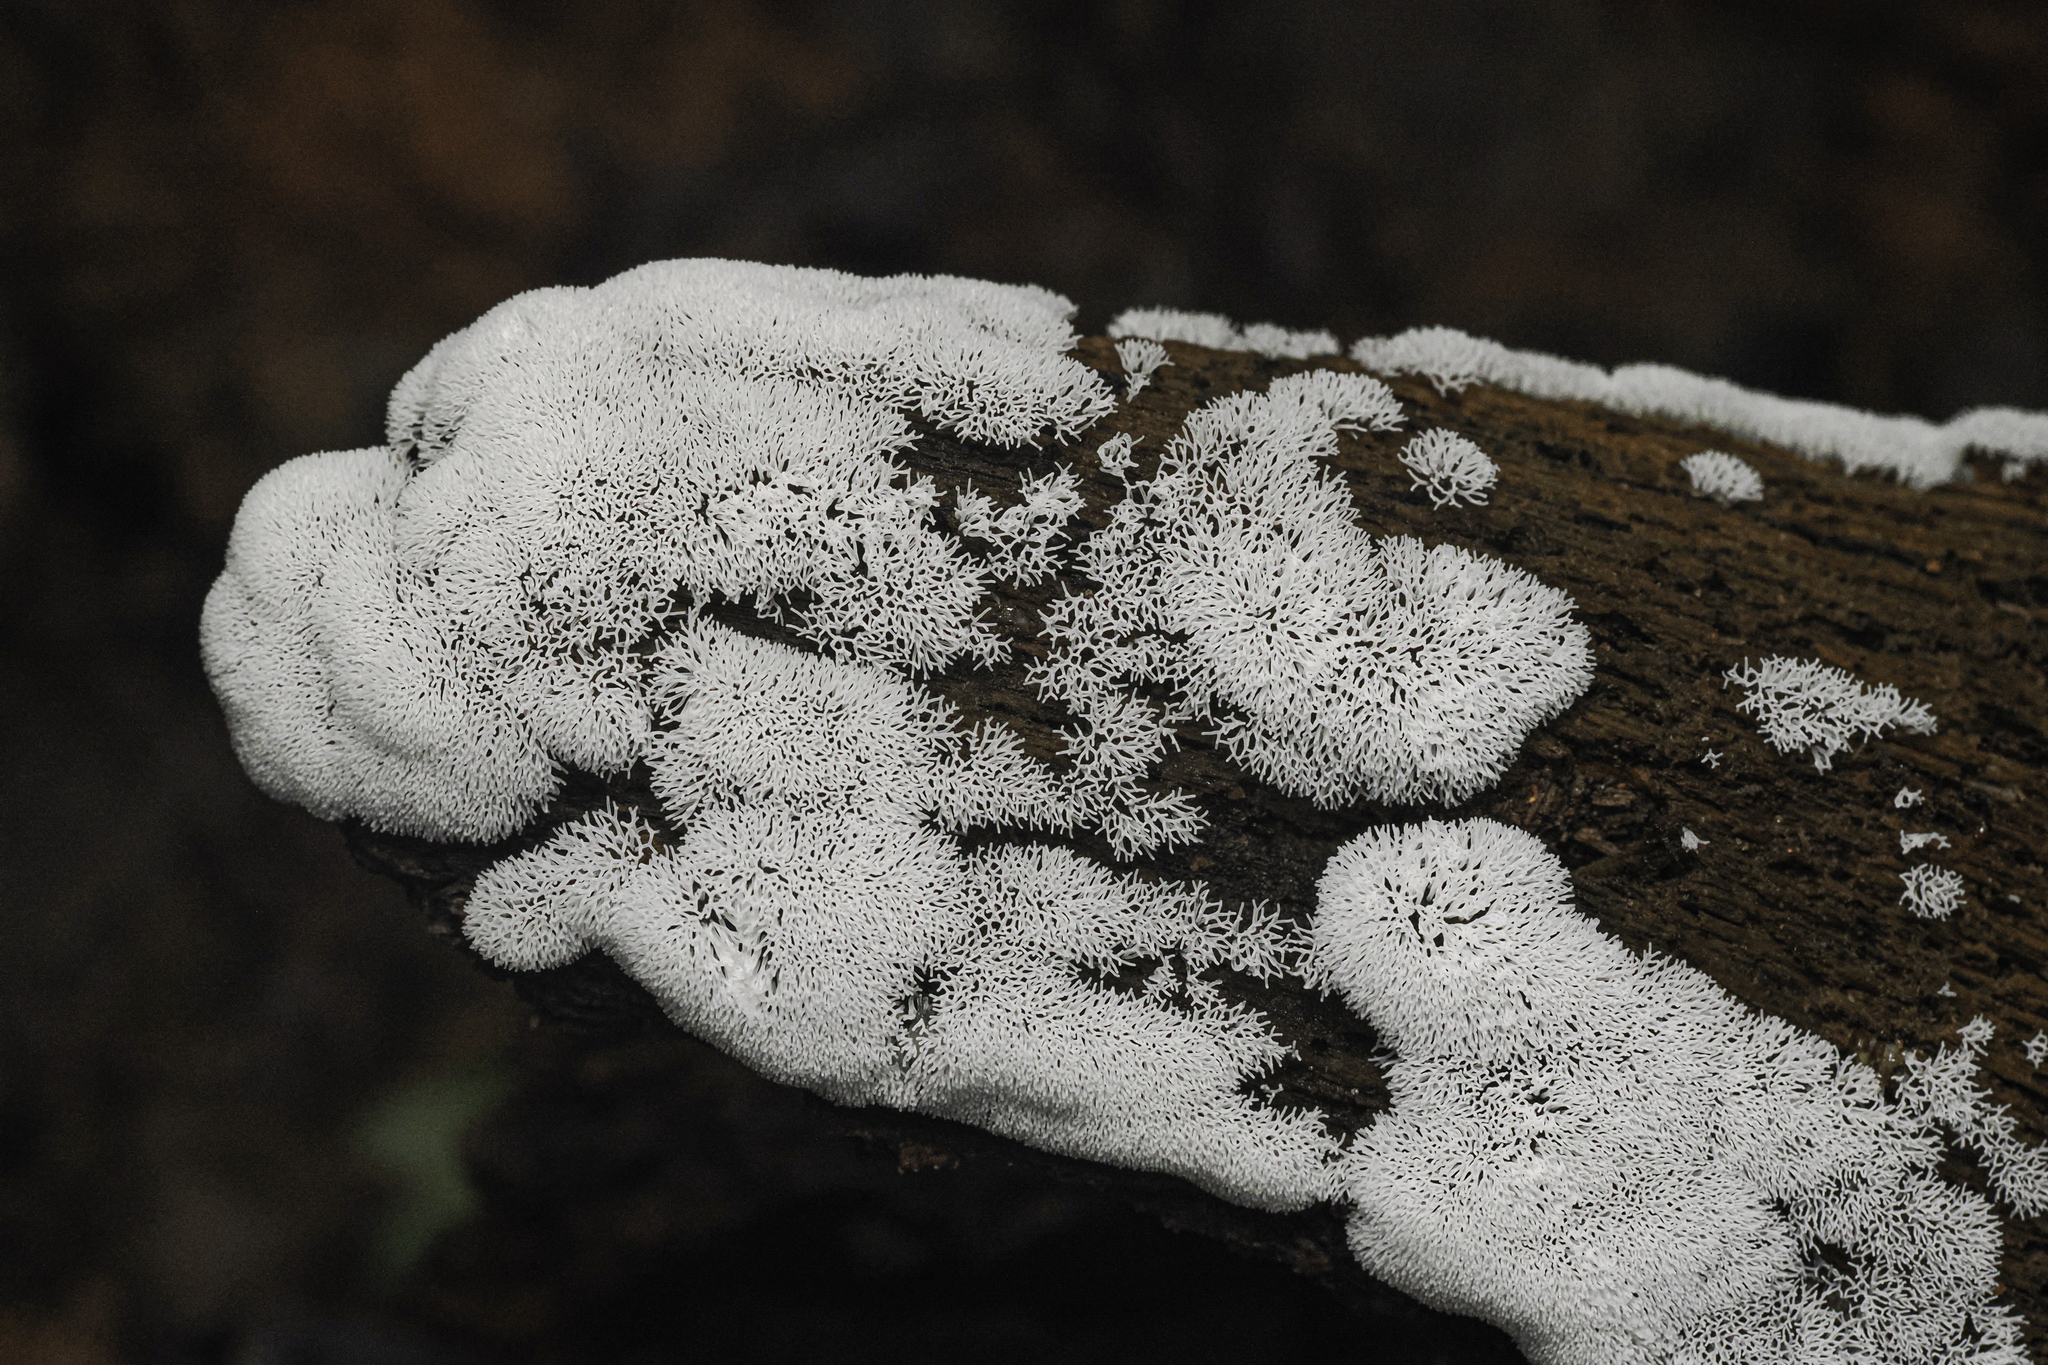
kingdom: Protozoa
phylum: Mycetozoa
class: Protosteliomycetes
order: Ceratiomyxales
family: Ceratiomyxaceae
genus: Ceratiomyxa
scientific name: Ceratiomyxa fruticulosa
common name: Honeycomb coral slime mold
